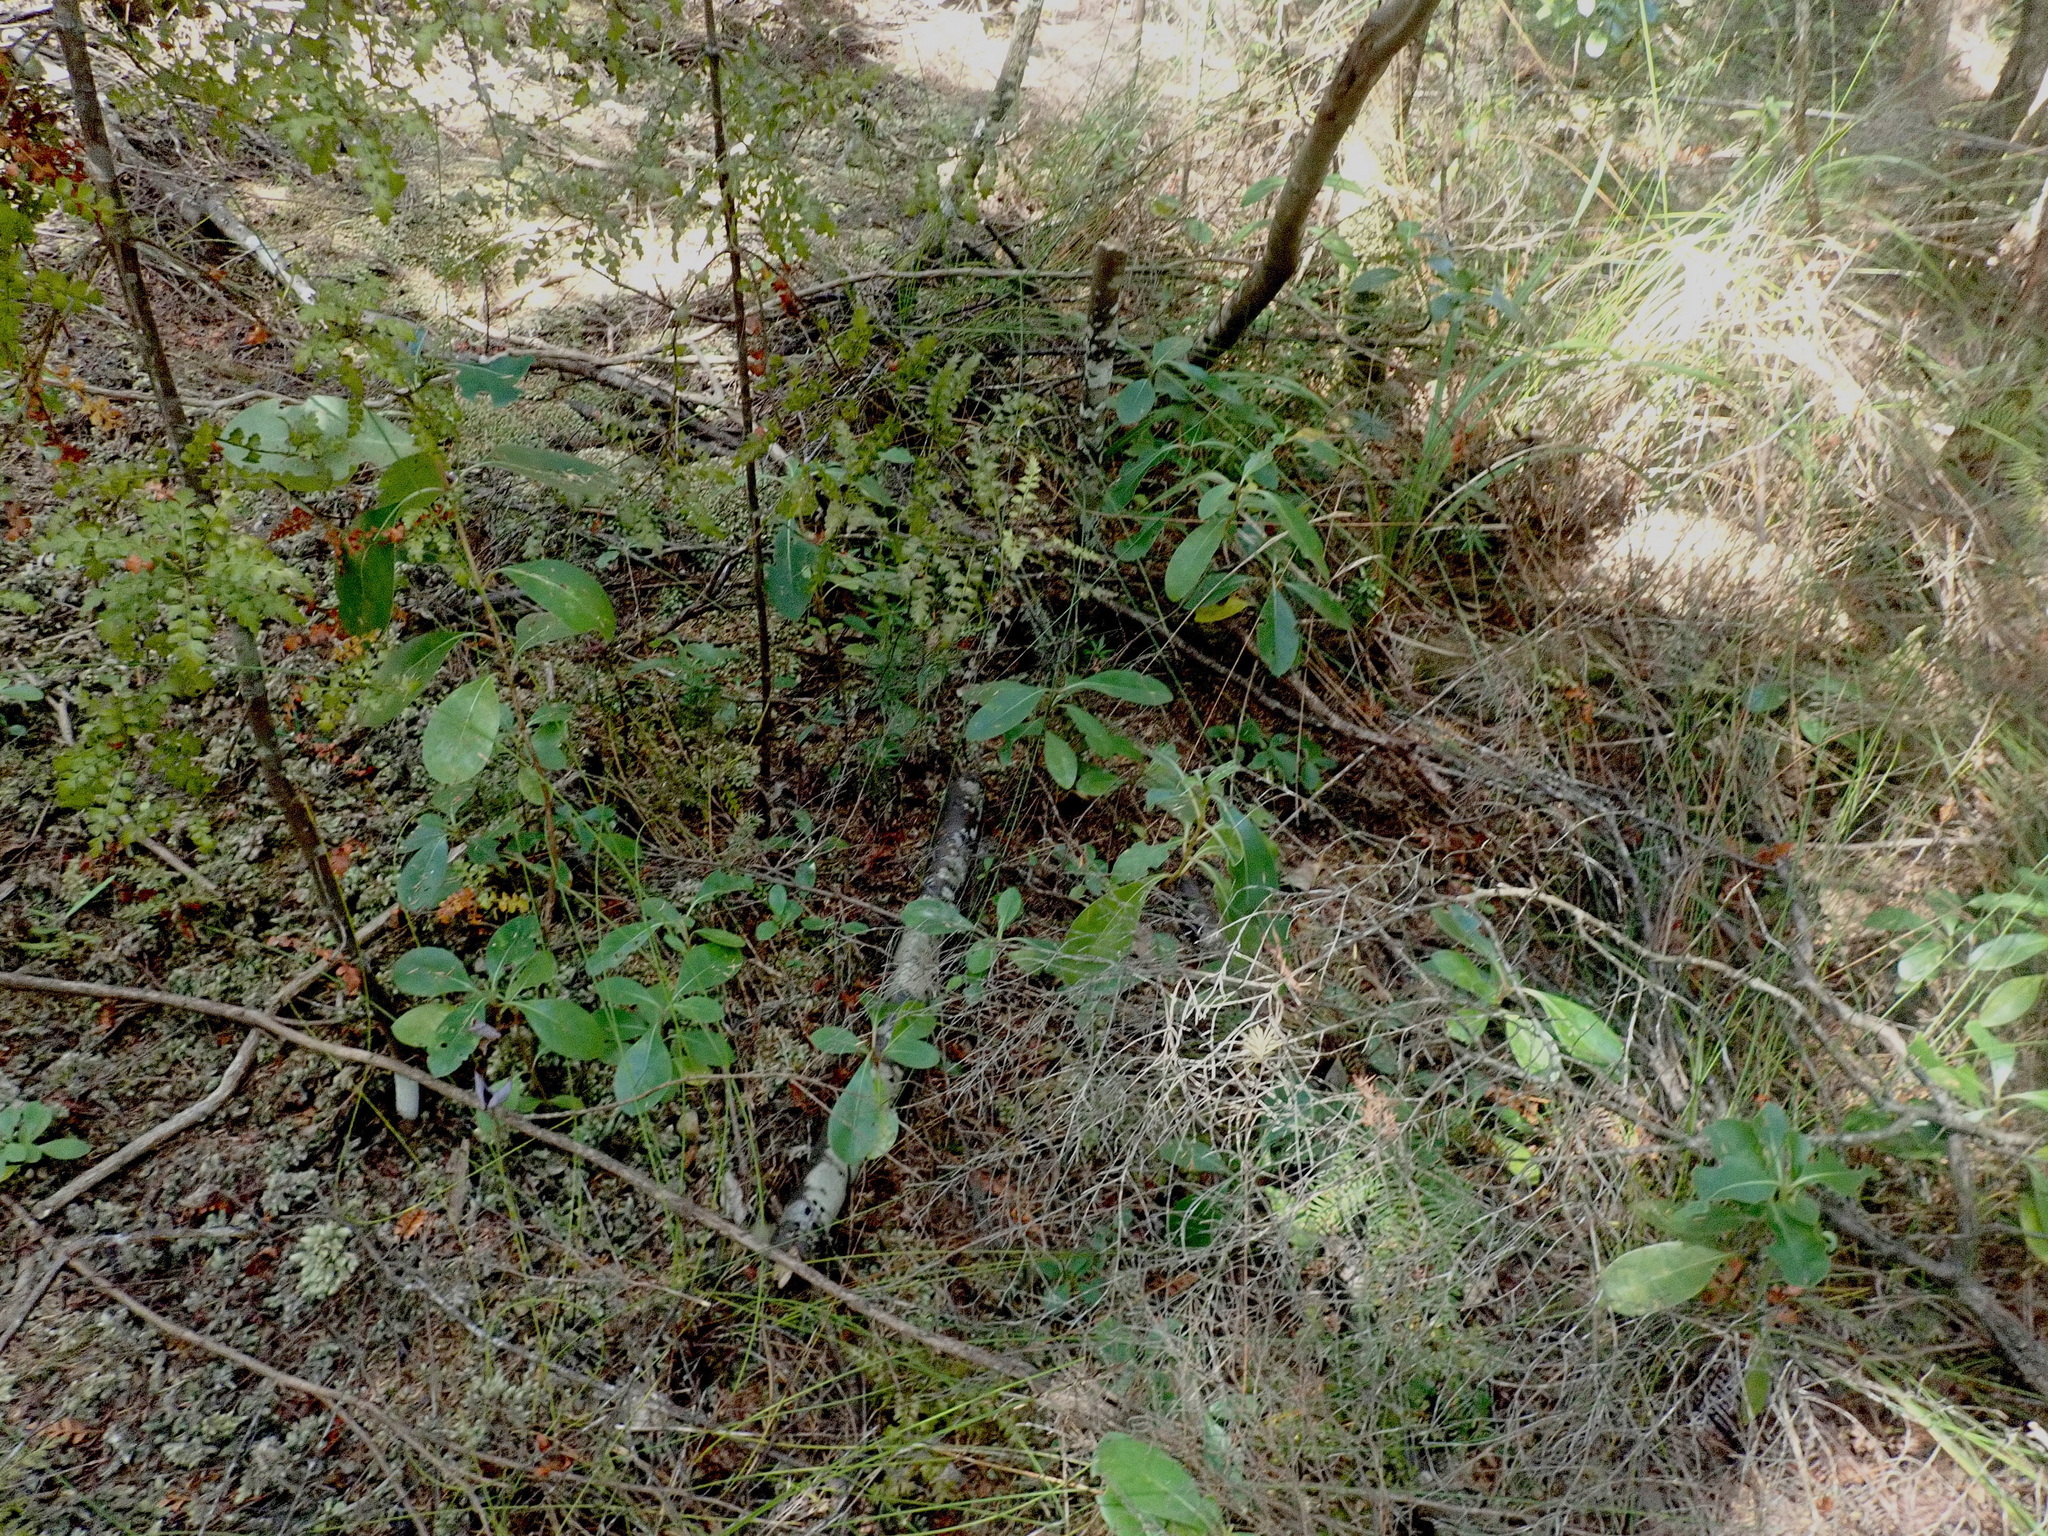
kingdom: Plantae
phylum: Tracheophyta
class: Pinopsida
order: Pinales
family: Phyllocladaceae
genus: Phyllocladus
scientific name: Phyllocladus trichomanoides
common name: Celery pine
